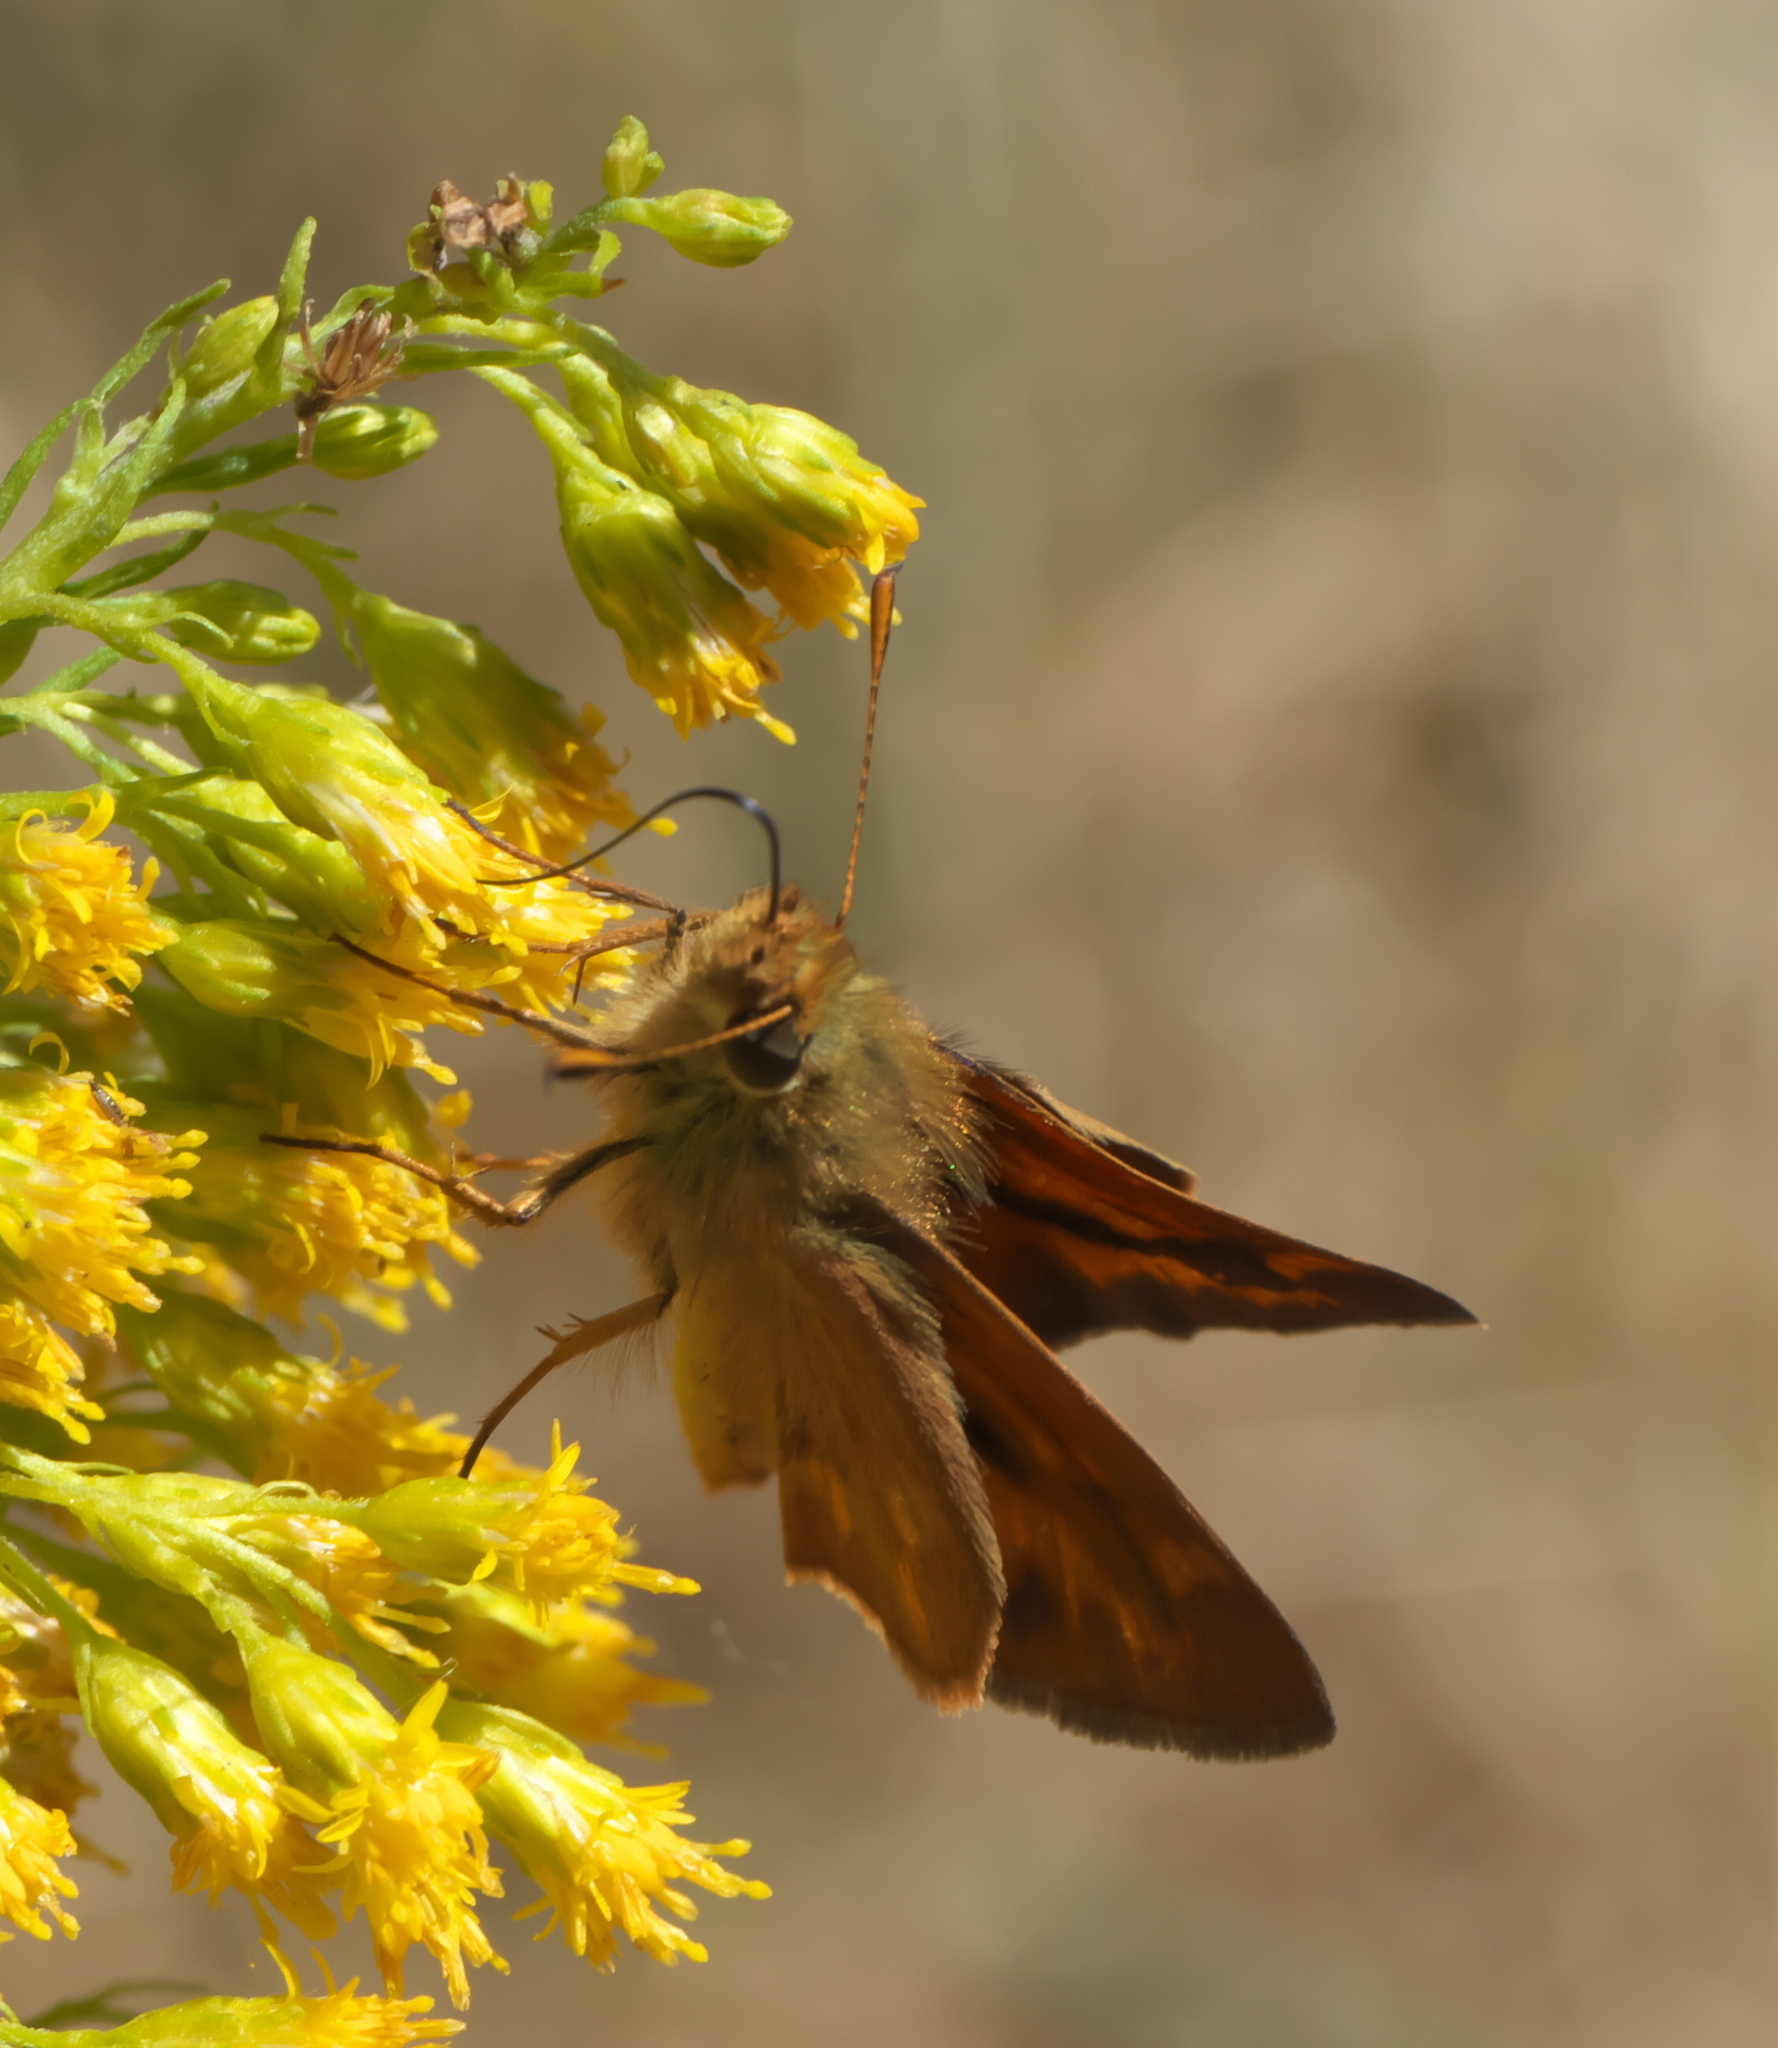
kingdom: Animalia
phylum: Arthropoda
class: Insecta
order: Lepidoptera
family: Hesperiidae
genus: Ochlodes
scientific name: Ochlodes sylvanoides
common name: Woodland skipper
